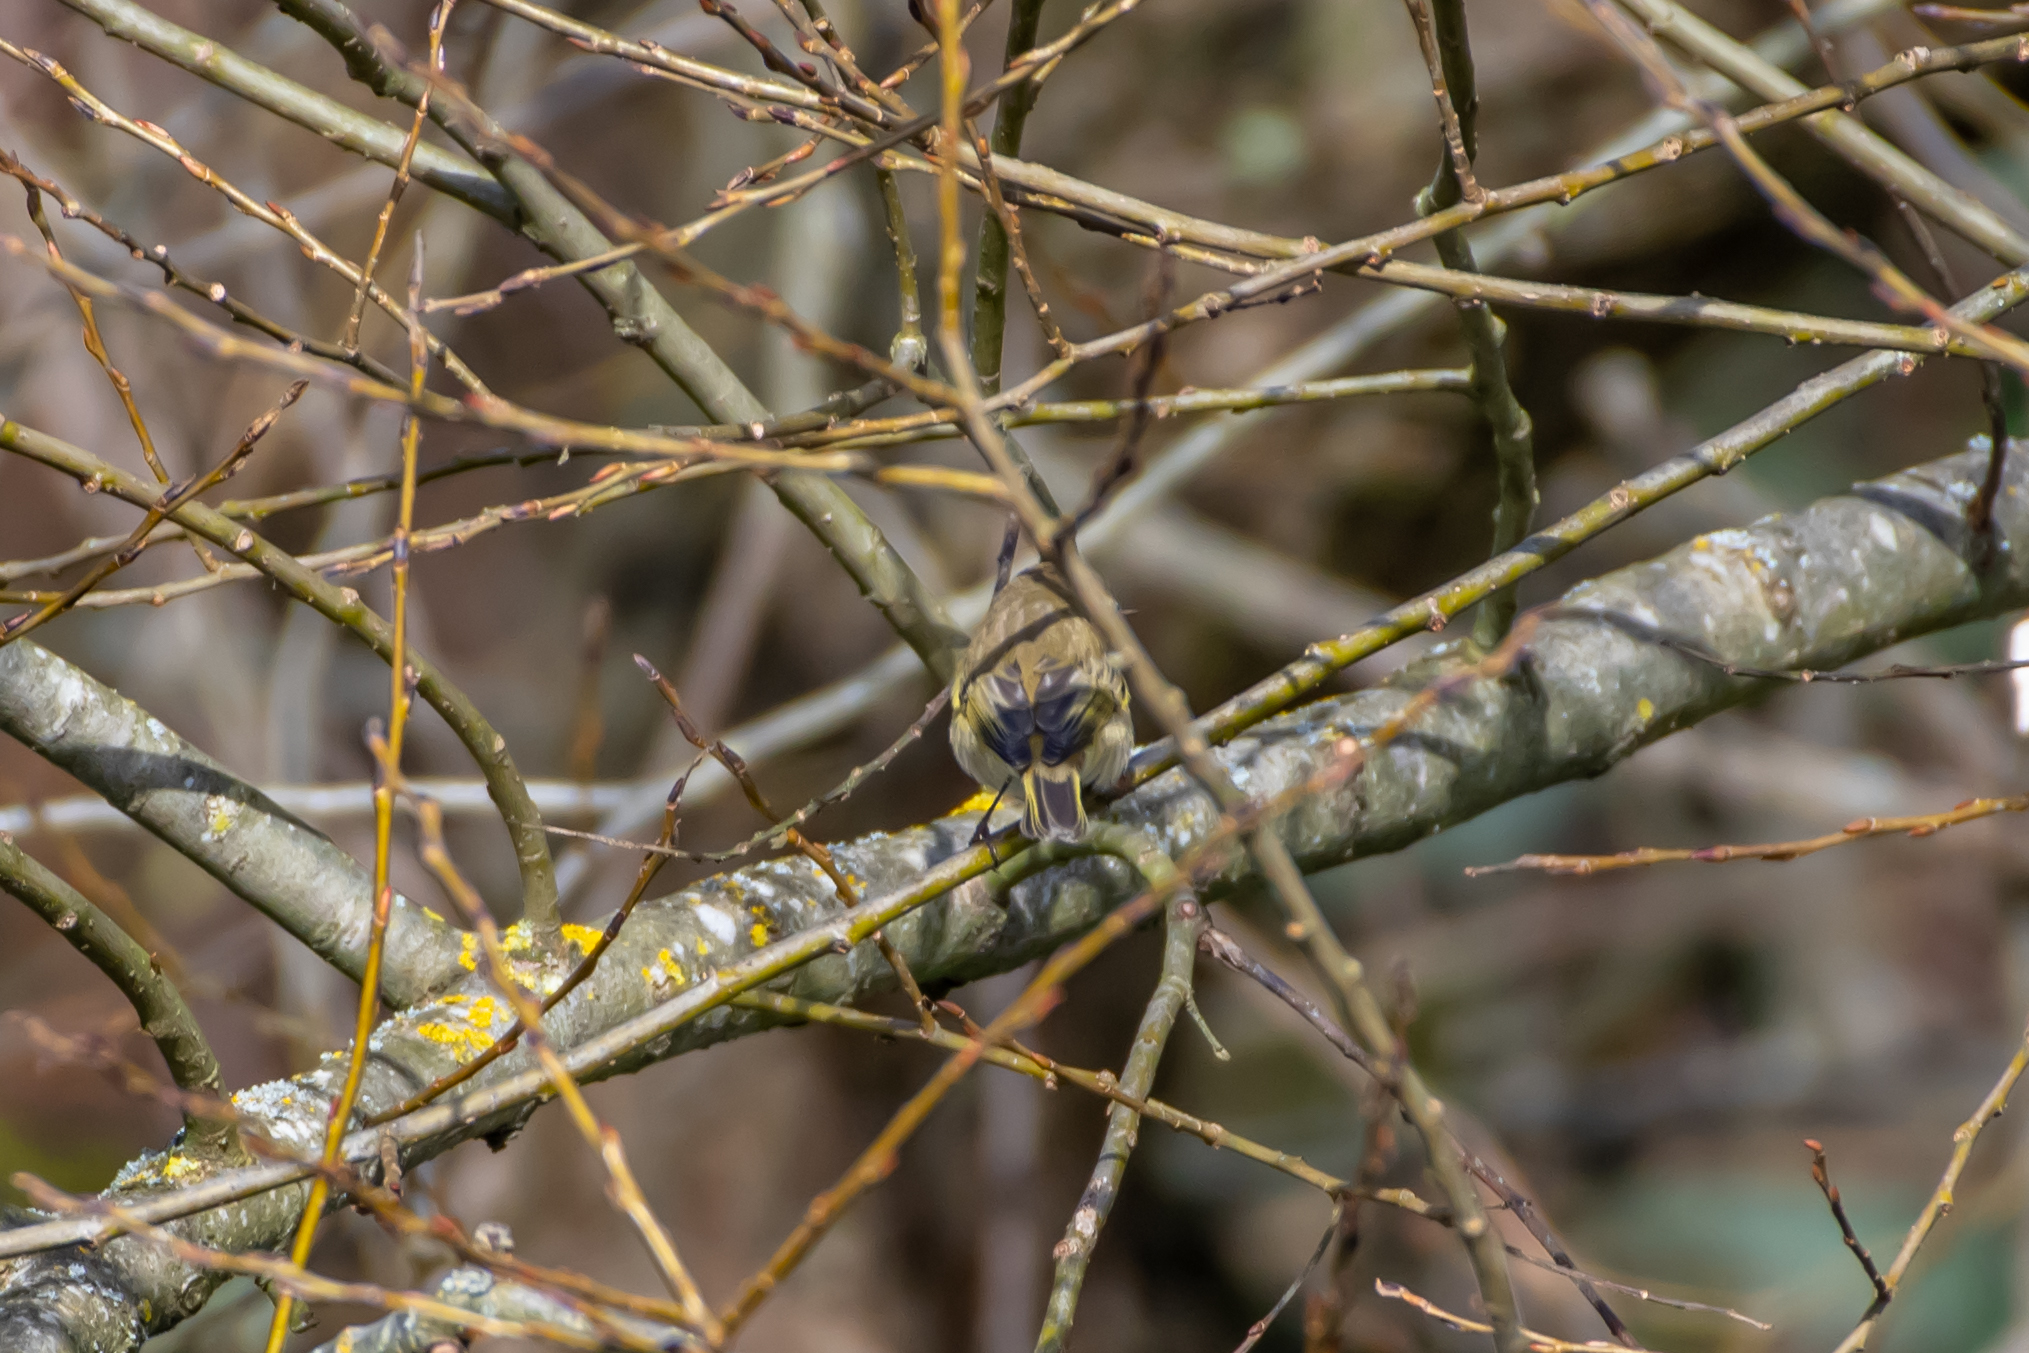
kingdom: Animalia
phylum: Chordata
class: Aves
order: Passeriformes
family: Phylloscopidae
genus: Phylloscopus
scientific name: Phylloscopus collybita
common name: Common chiffchaff
